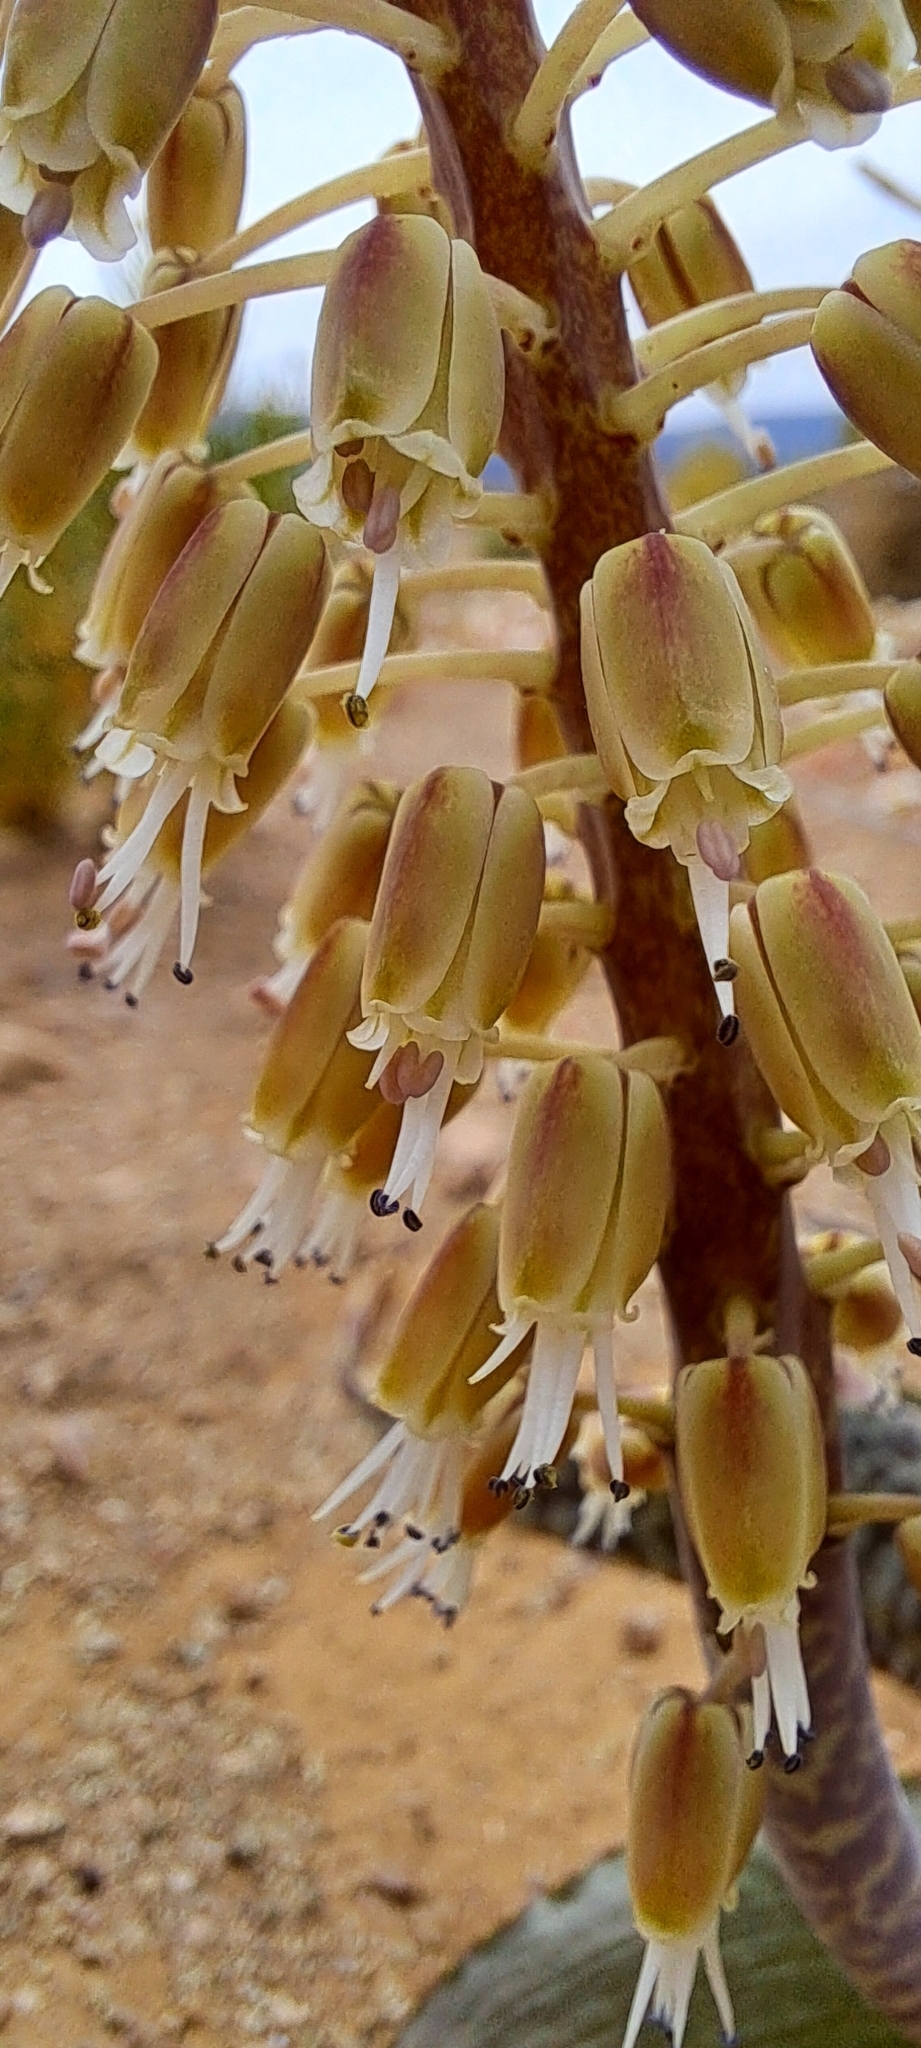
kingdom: Plantae
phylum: Tracheophyta
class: Liliopsida
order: Asparagales
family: Asparagaceae
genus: Lachenalia
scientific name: Lachenalia zebrina
